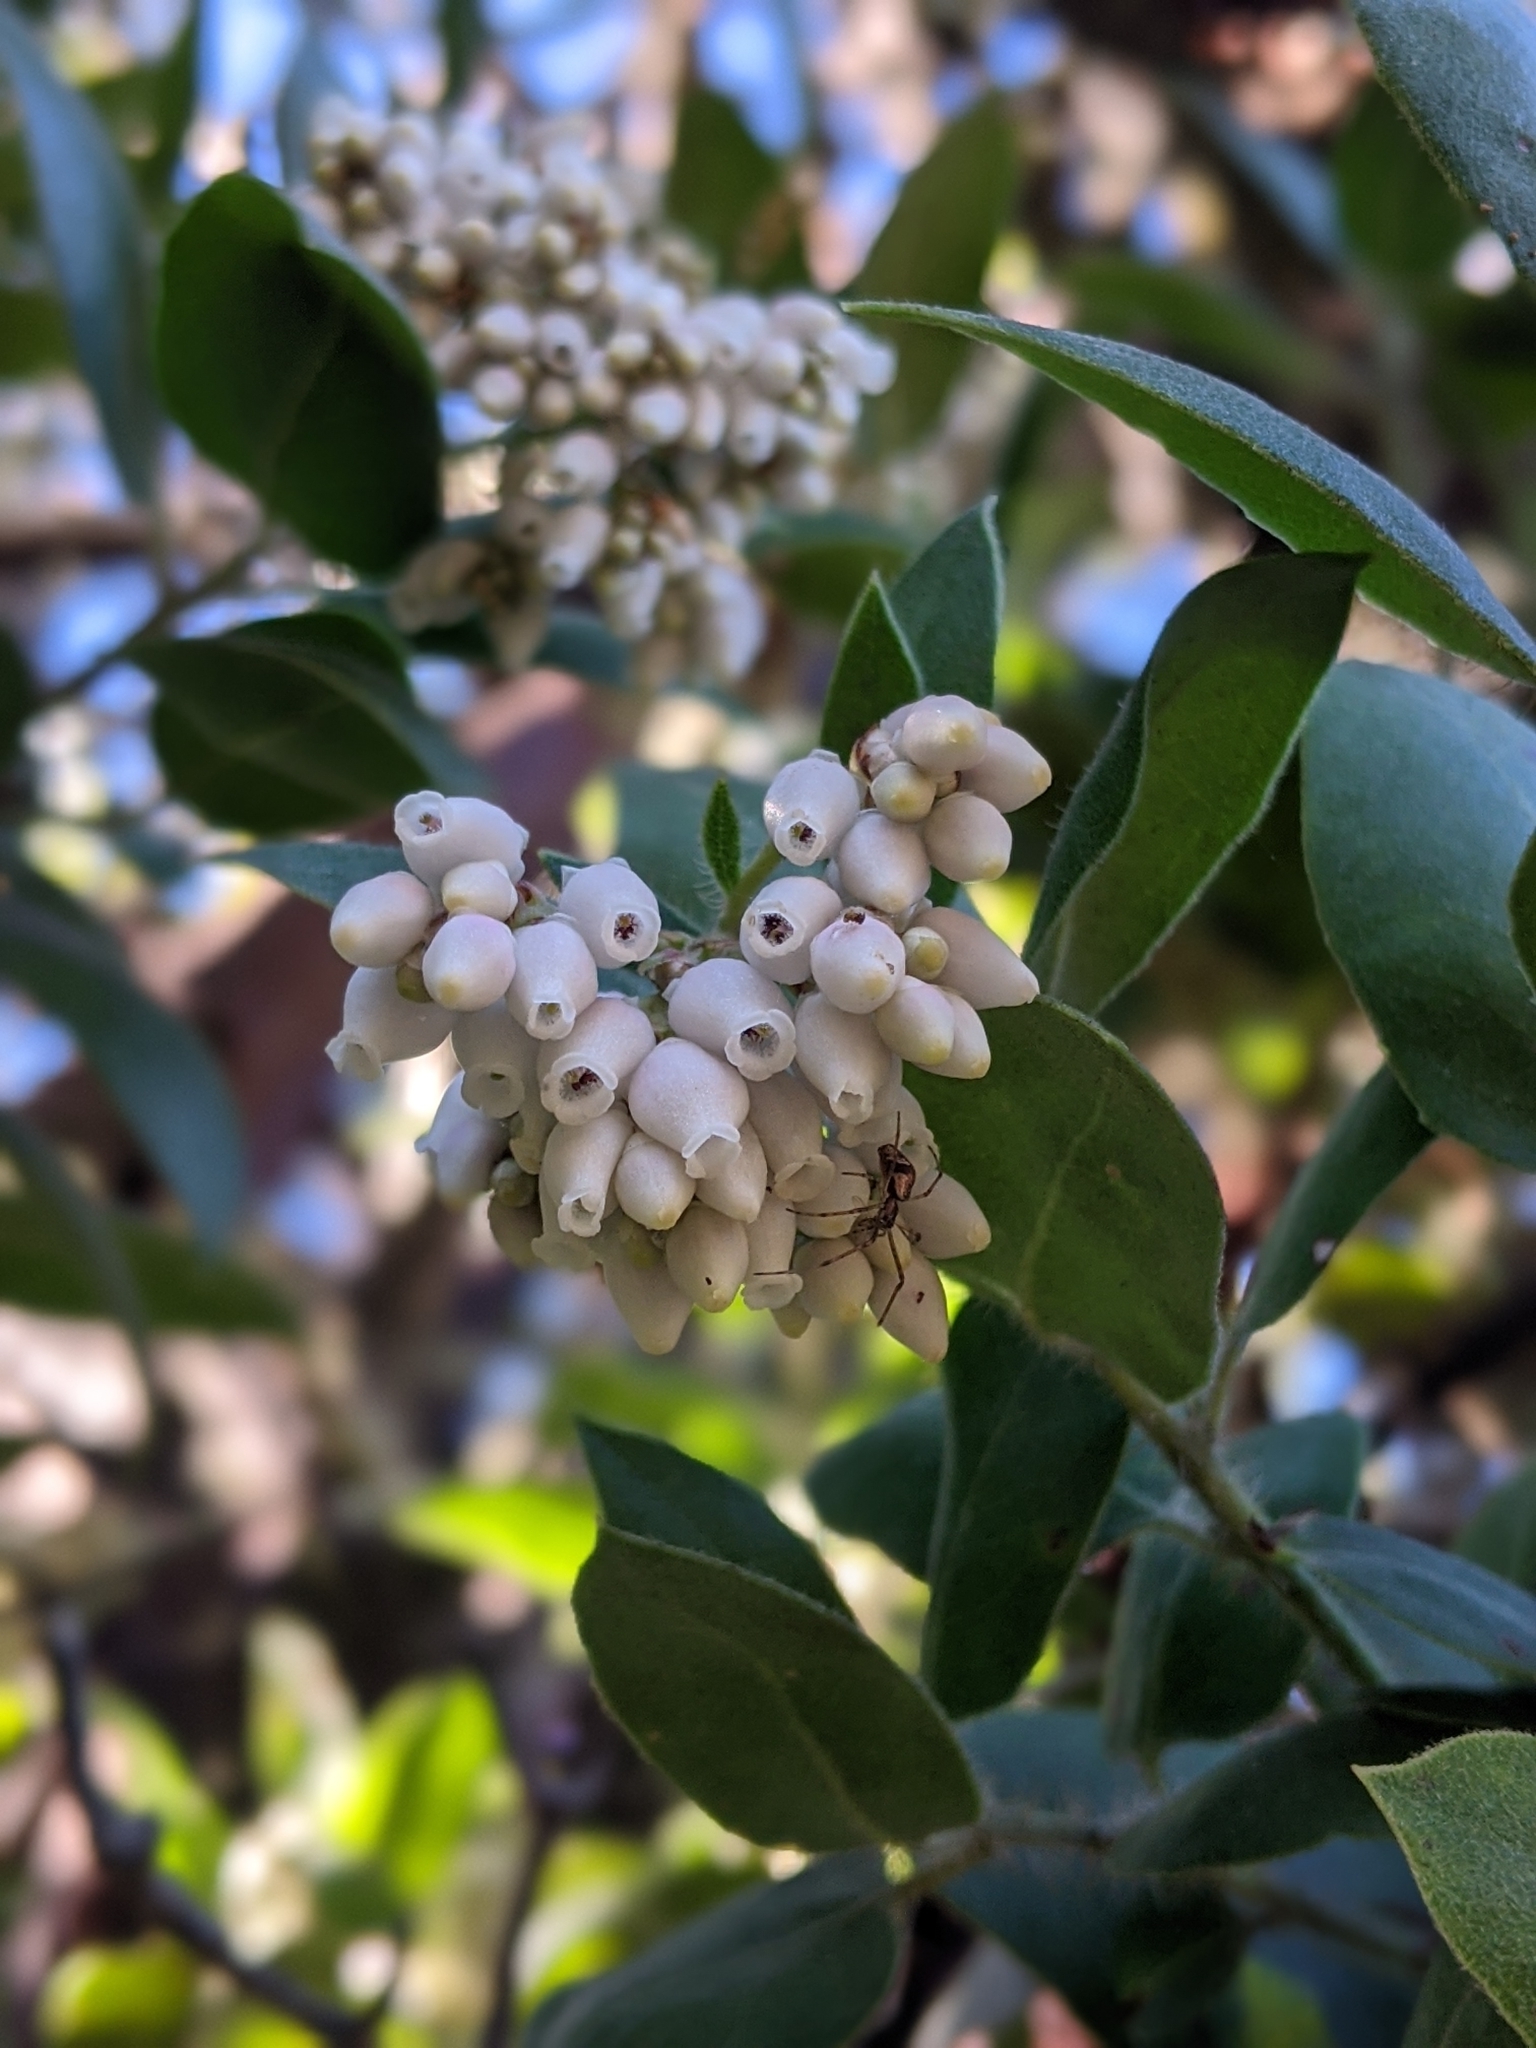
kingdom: Plantae
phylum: Tracheophyta
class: Magnoliopsida
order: Ericales
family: Ericaceae
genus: Arctostaphylos
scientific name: Arctostaphylos crustacea
